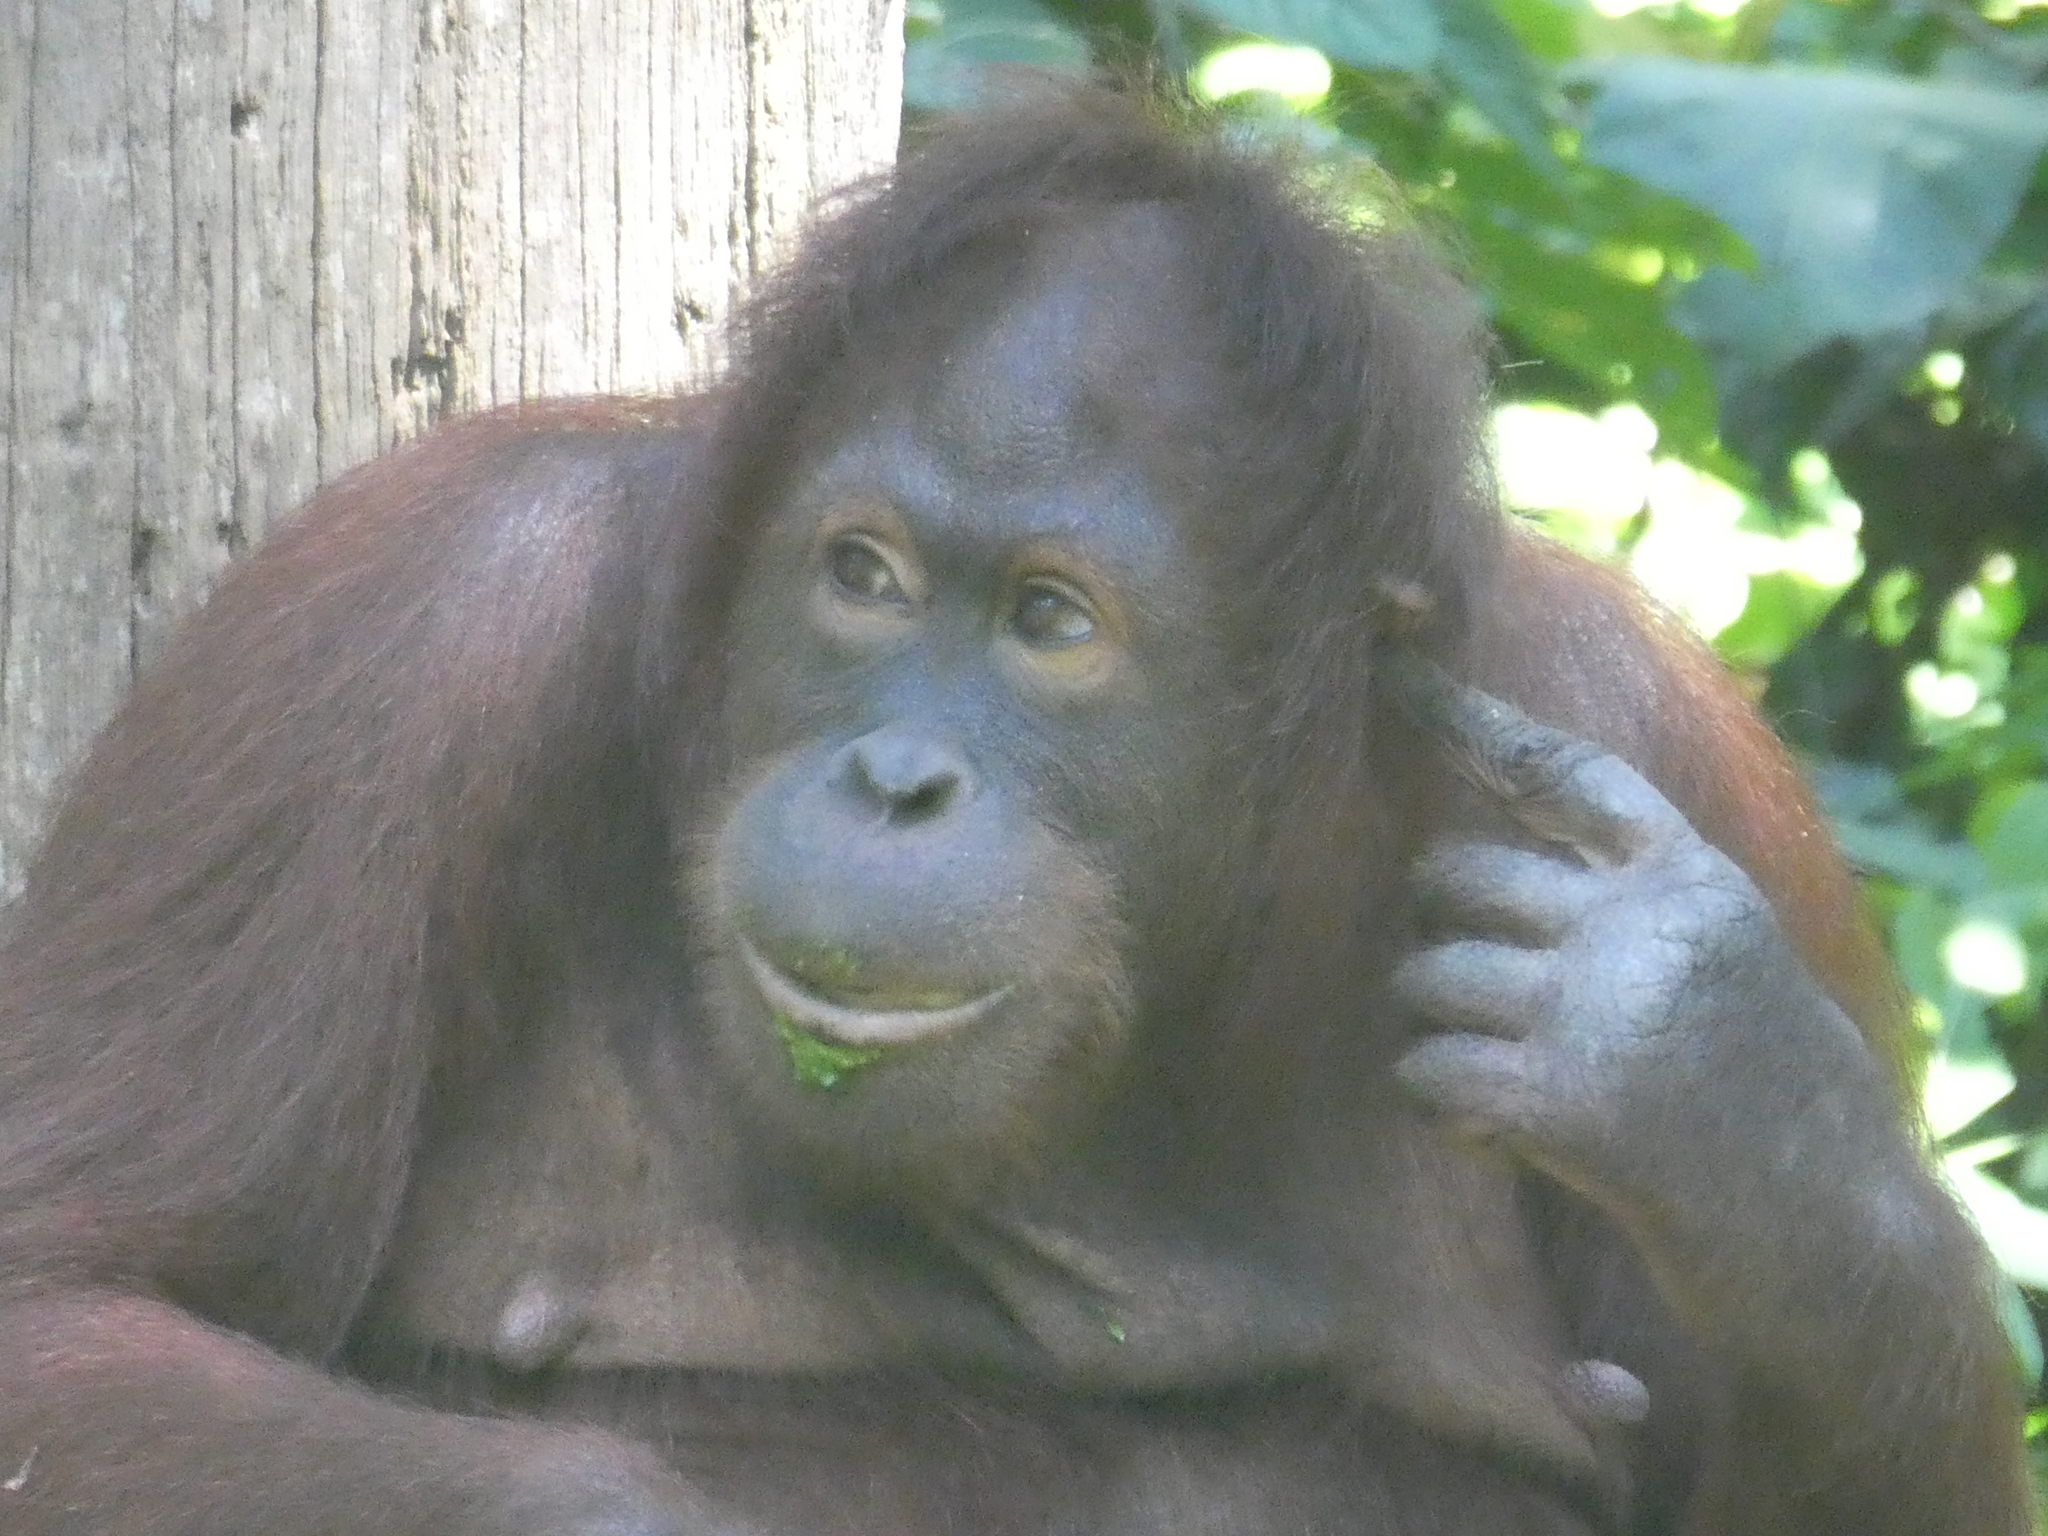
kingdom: Animalia
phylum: Chordata
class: Mammalia
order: Primates
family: Hominidae
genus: Pongo
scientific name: Pongo pygmaeus
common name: Bornean orangutan
